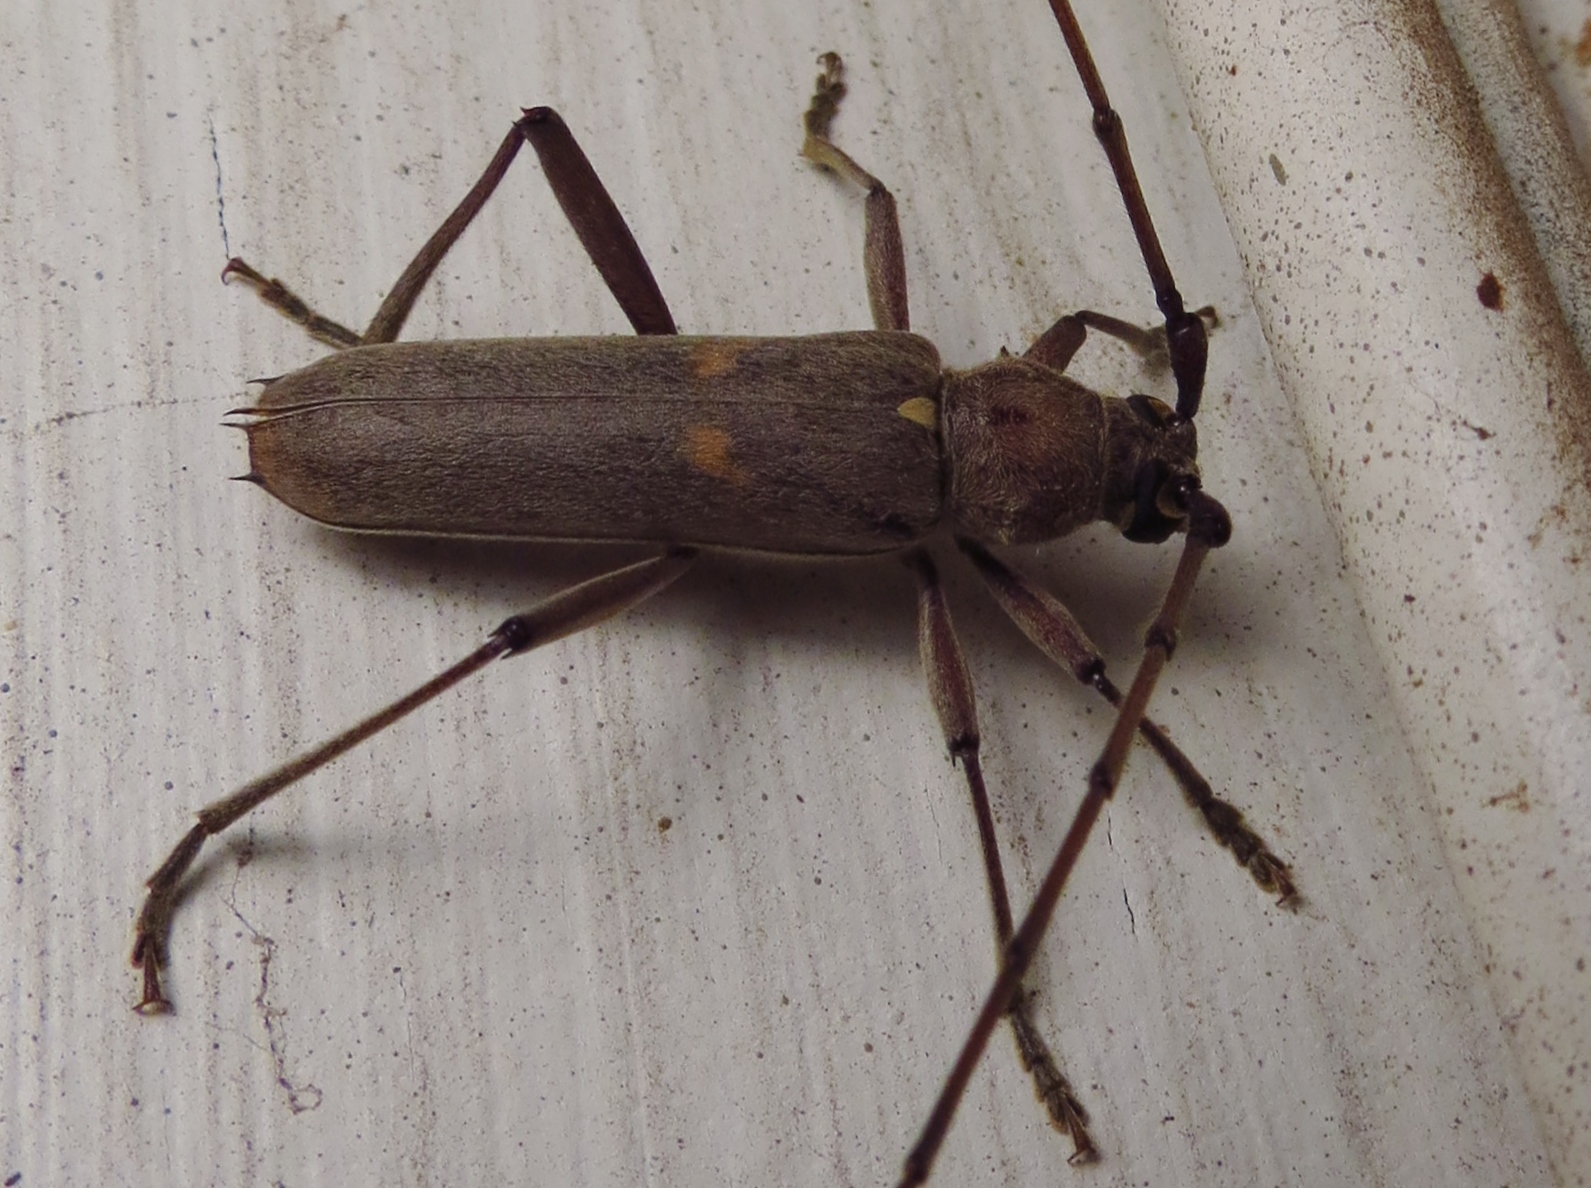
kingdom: Animalia
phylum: Arthropoda
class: Insecta
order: Coleoptera
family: Cerambycidae
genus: Knulliana
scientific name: Knulliana cincta
